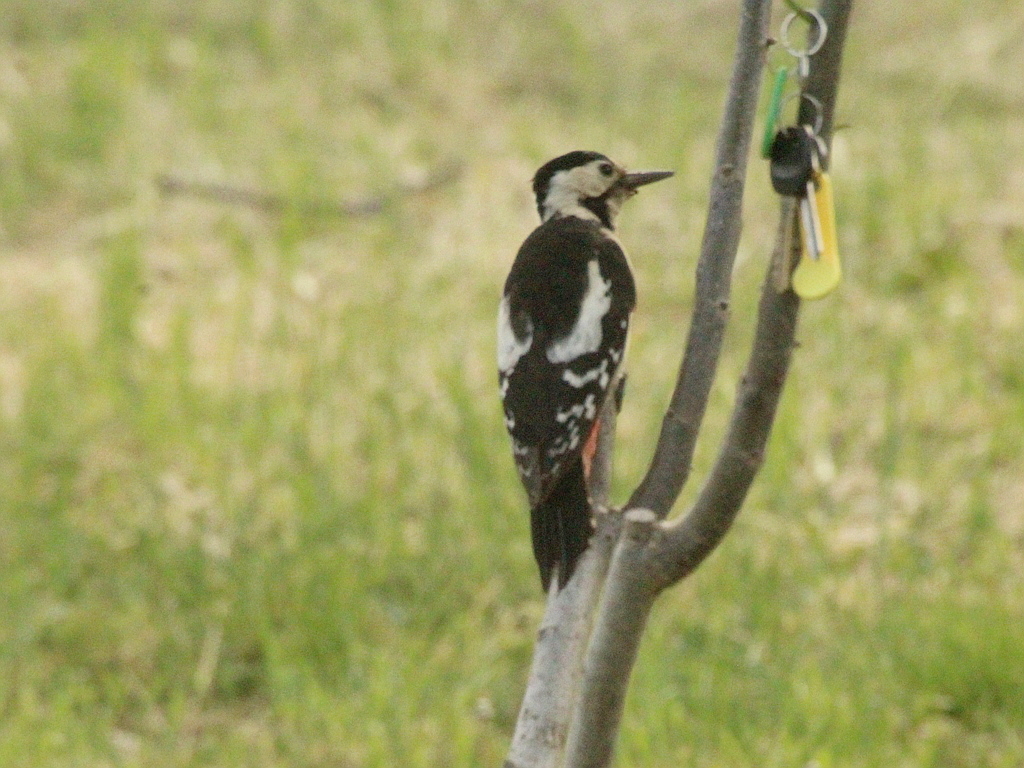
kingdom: Animalia
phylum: Chordata
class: Aves
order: Piciformes
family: Picidae
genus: Dendrocopos
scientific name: Dendrocopos syriacus
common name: Syrian woodpecker
